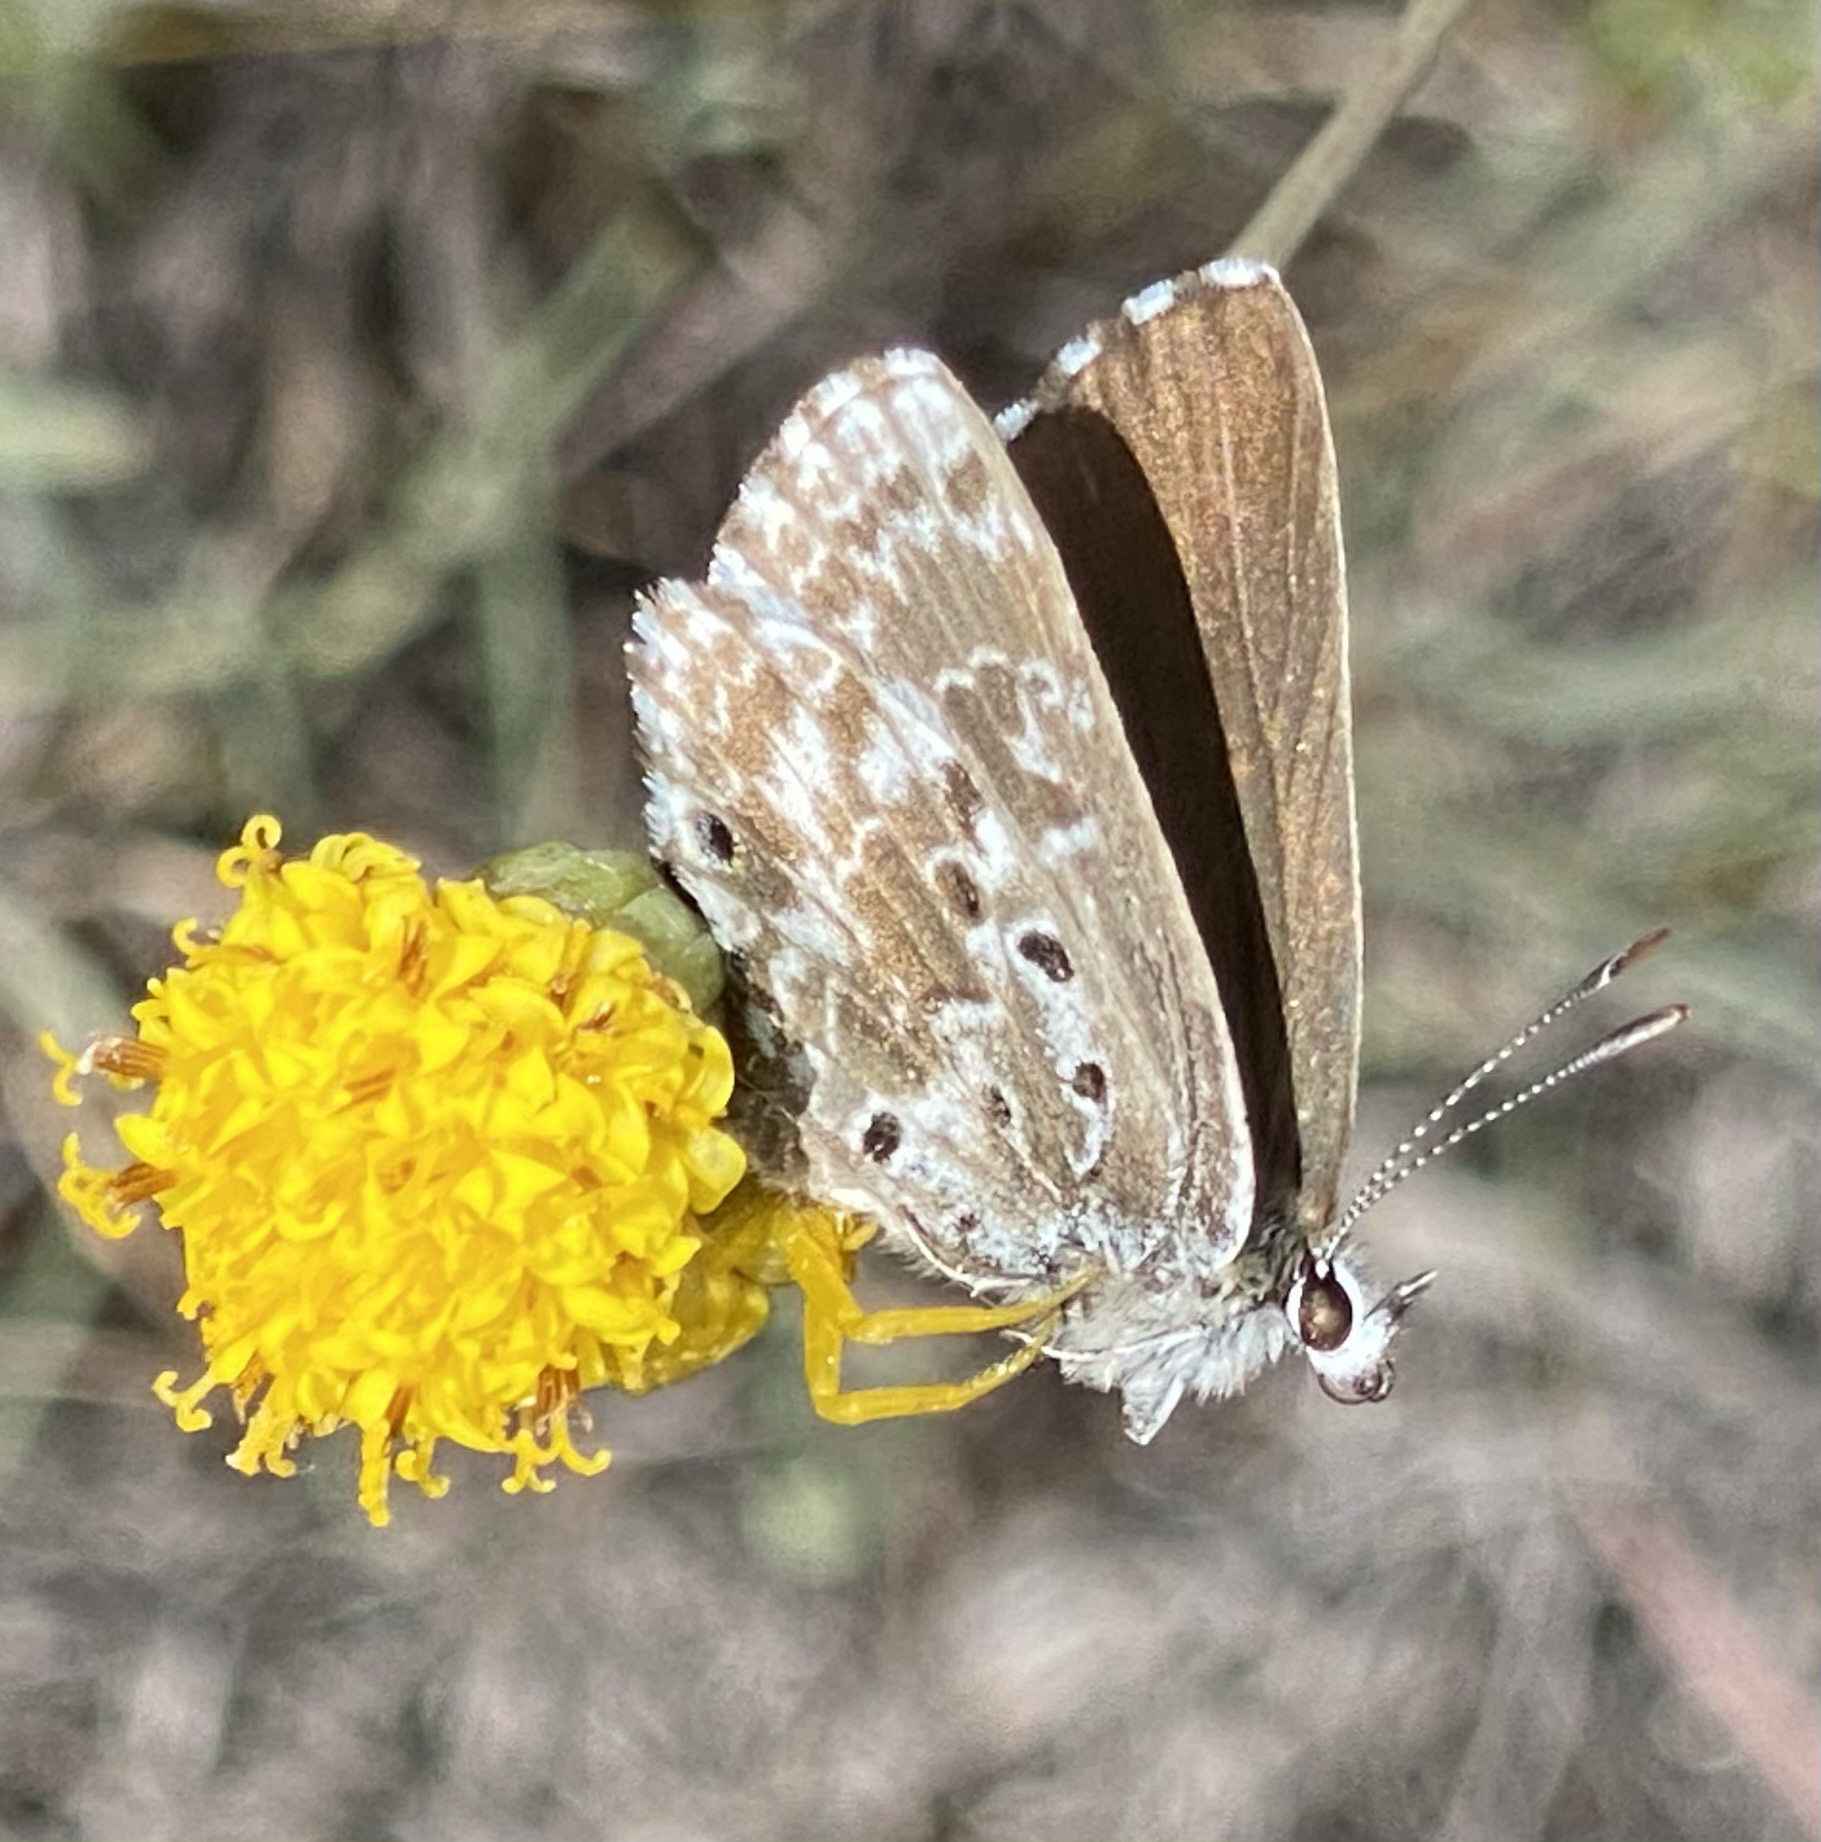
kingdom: Animalia
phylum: Arthropoda
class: Insecta
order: Lepidoptera
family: Lycaenidae
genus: Lepidochrysops
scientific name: Lepidochrysops variabilis
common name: Variable blue
